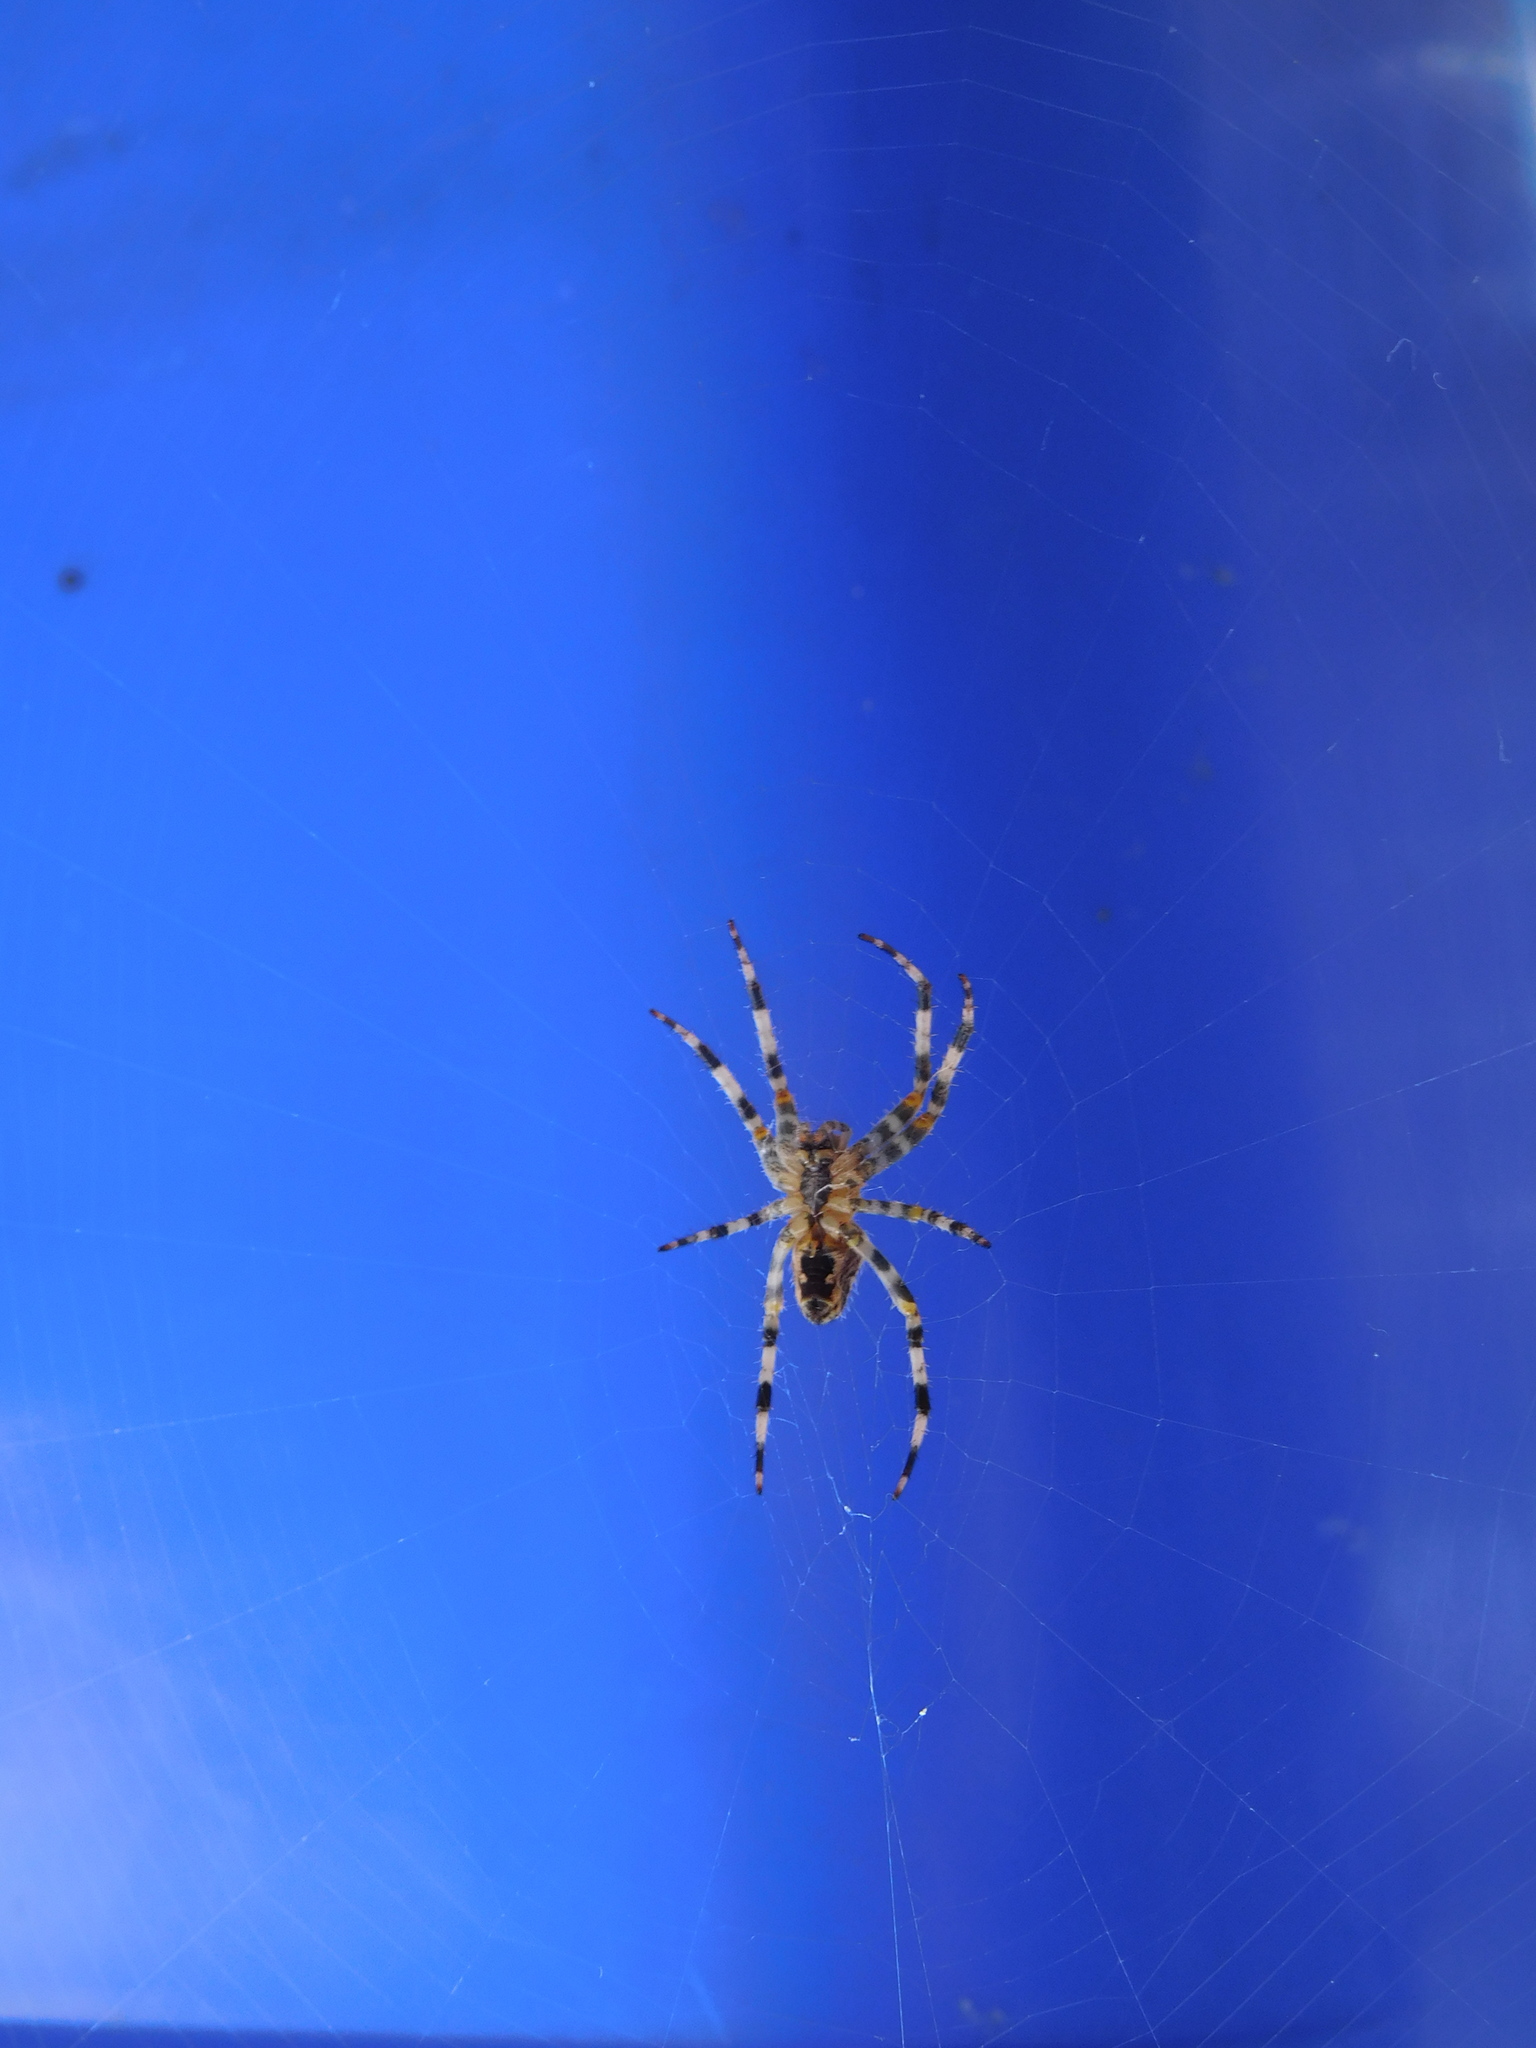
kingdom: Animalia
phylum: Arthropoda
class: Arachnida
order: Araneae
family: Araneidae
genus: Araneus
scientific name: Araneus diadematus
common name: Cross orbweaver
